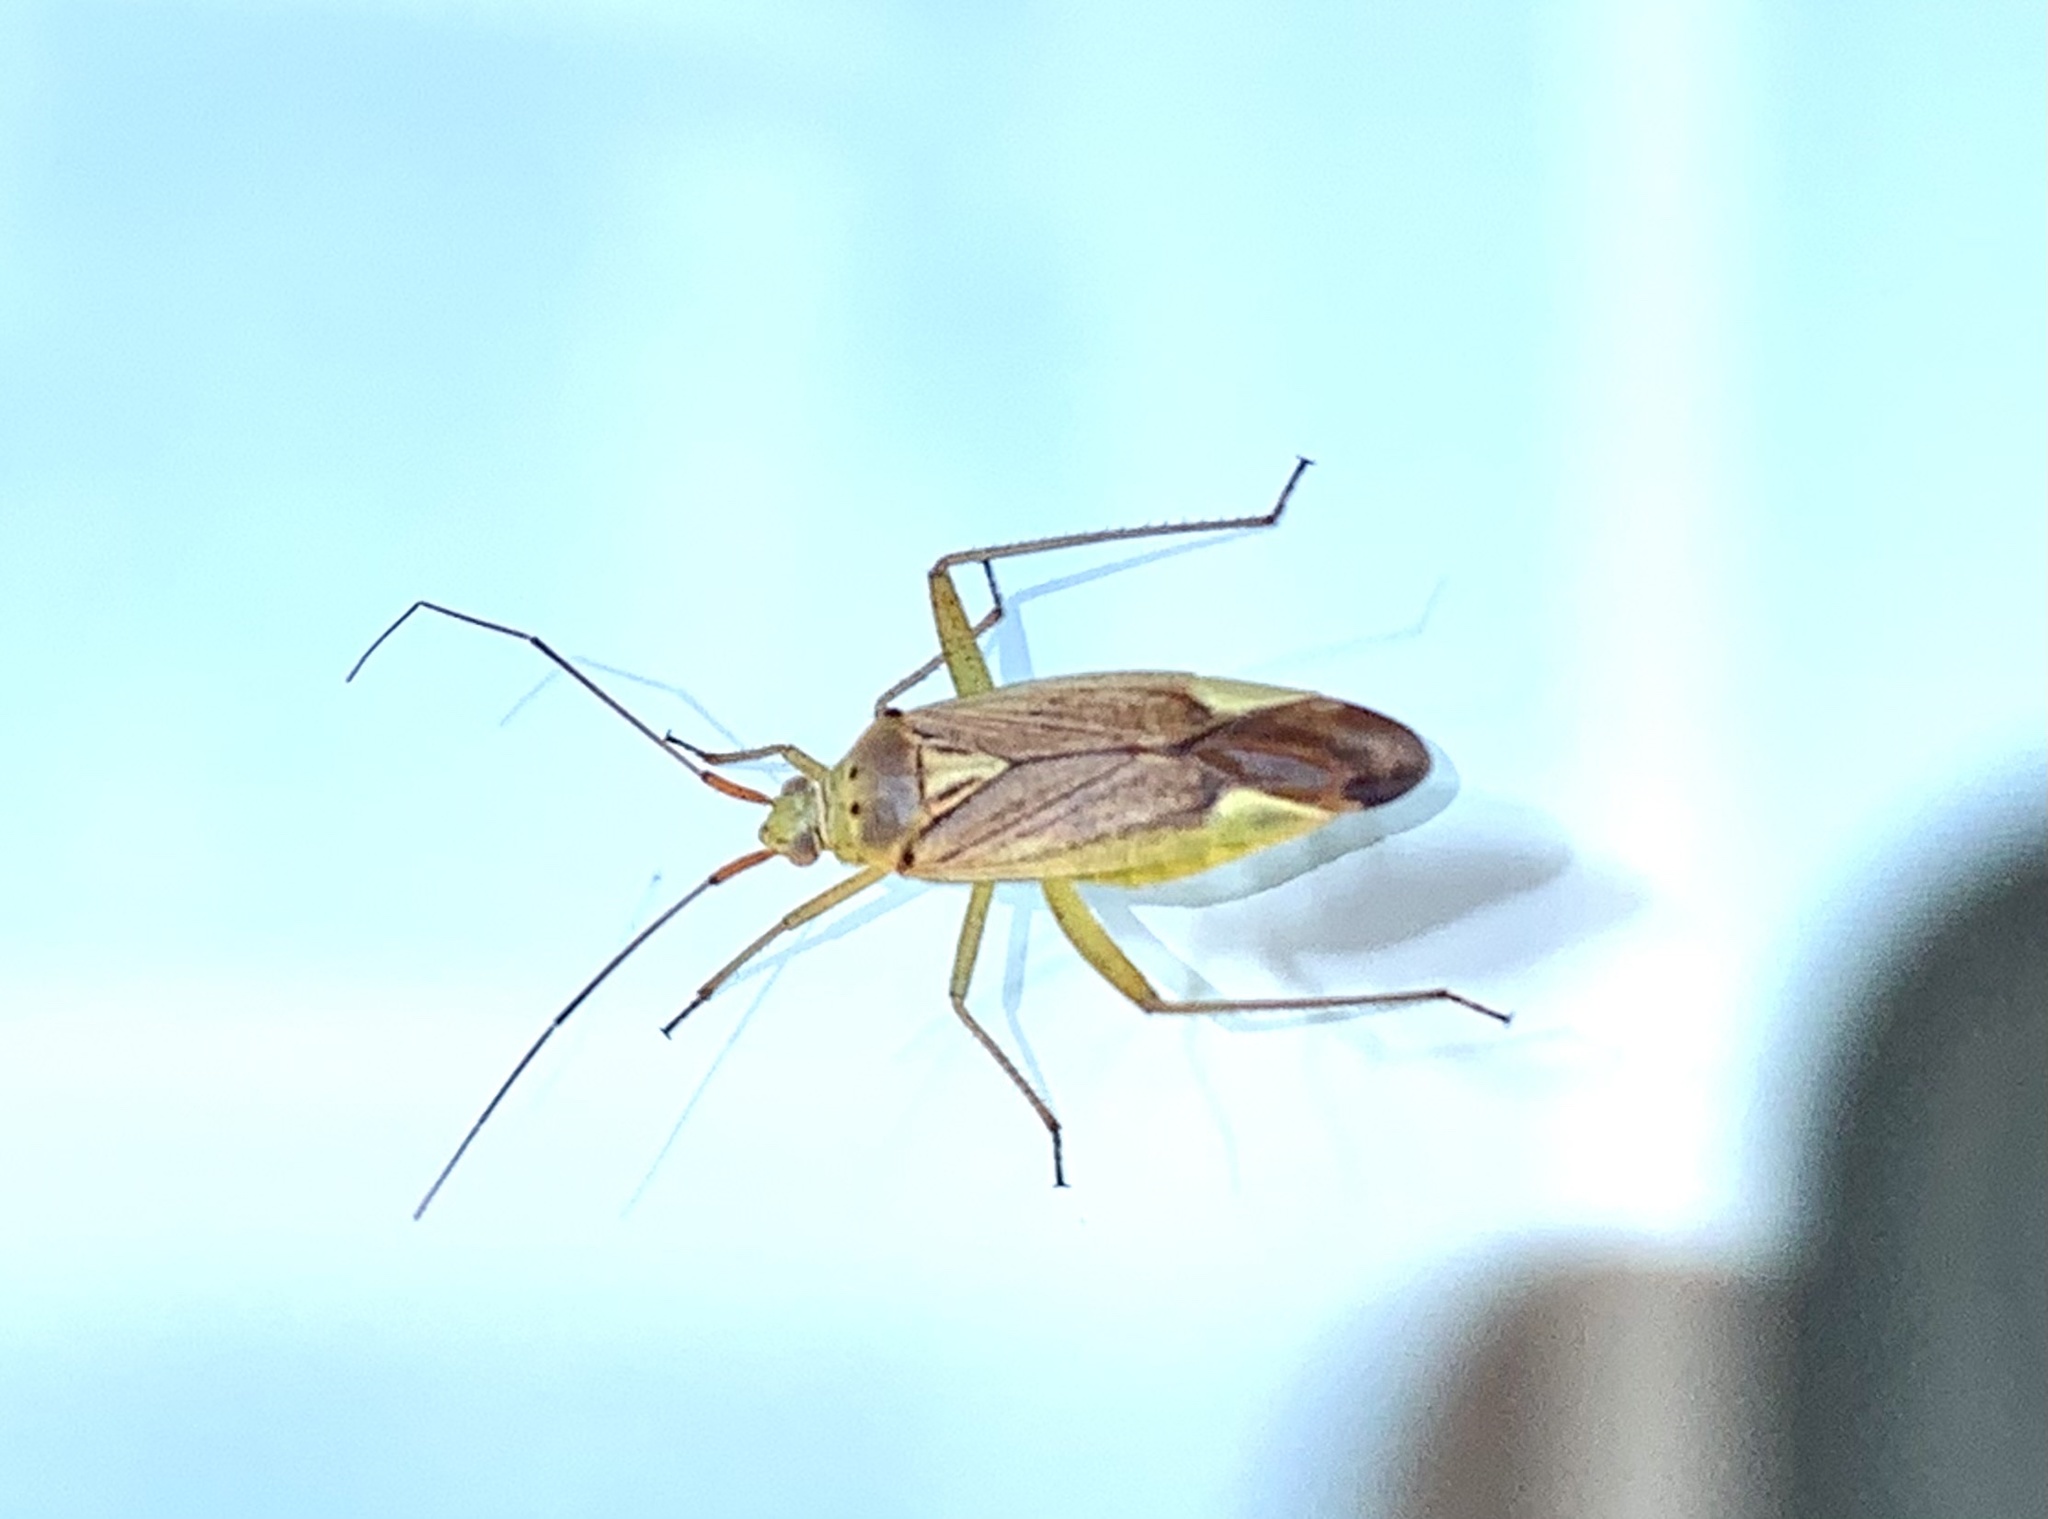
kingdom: Animalia
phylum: Arthropoda
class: Insecta
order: Hemiptera
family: Miridae
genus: Closterotomus
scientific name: Closterotomus trivialis
